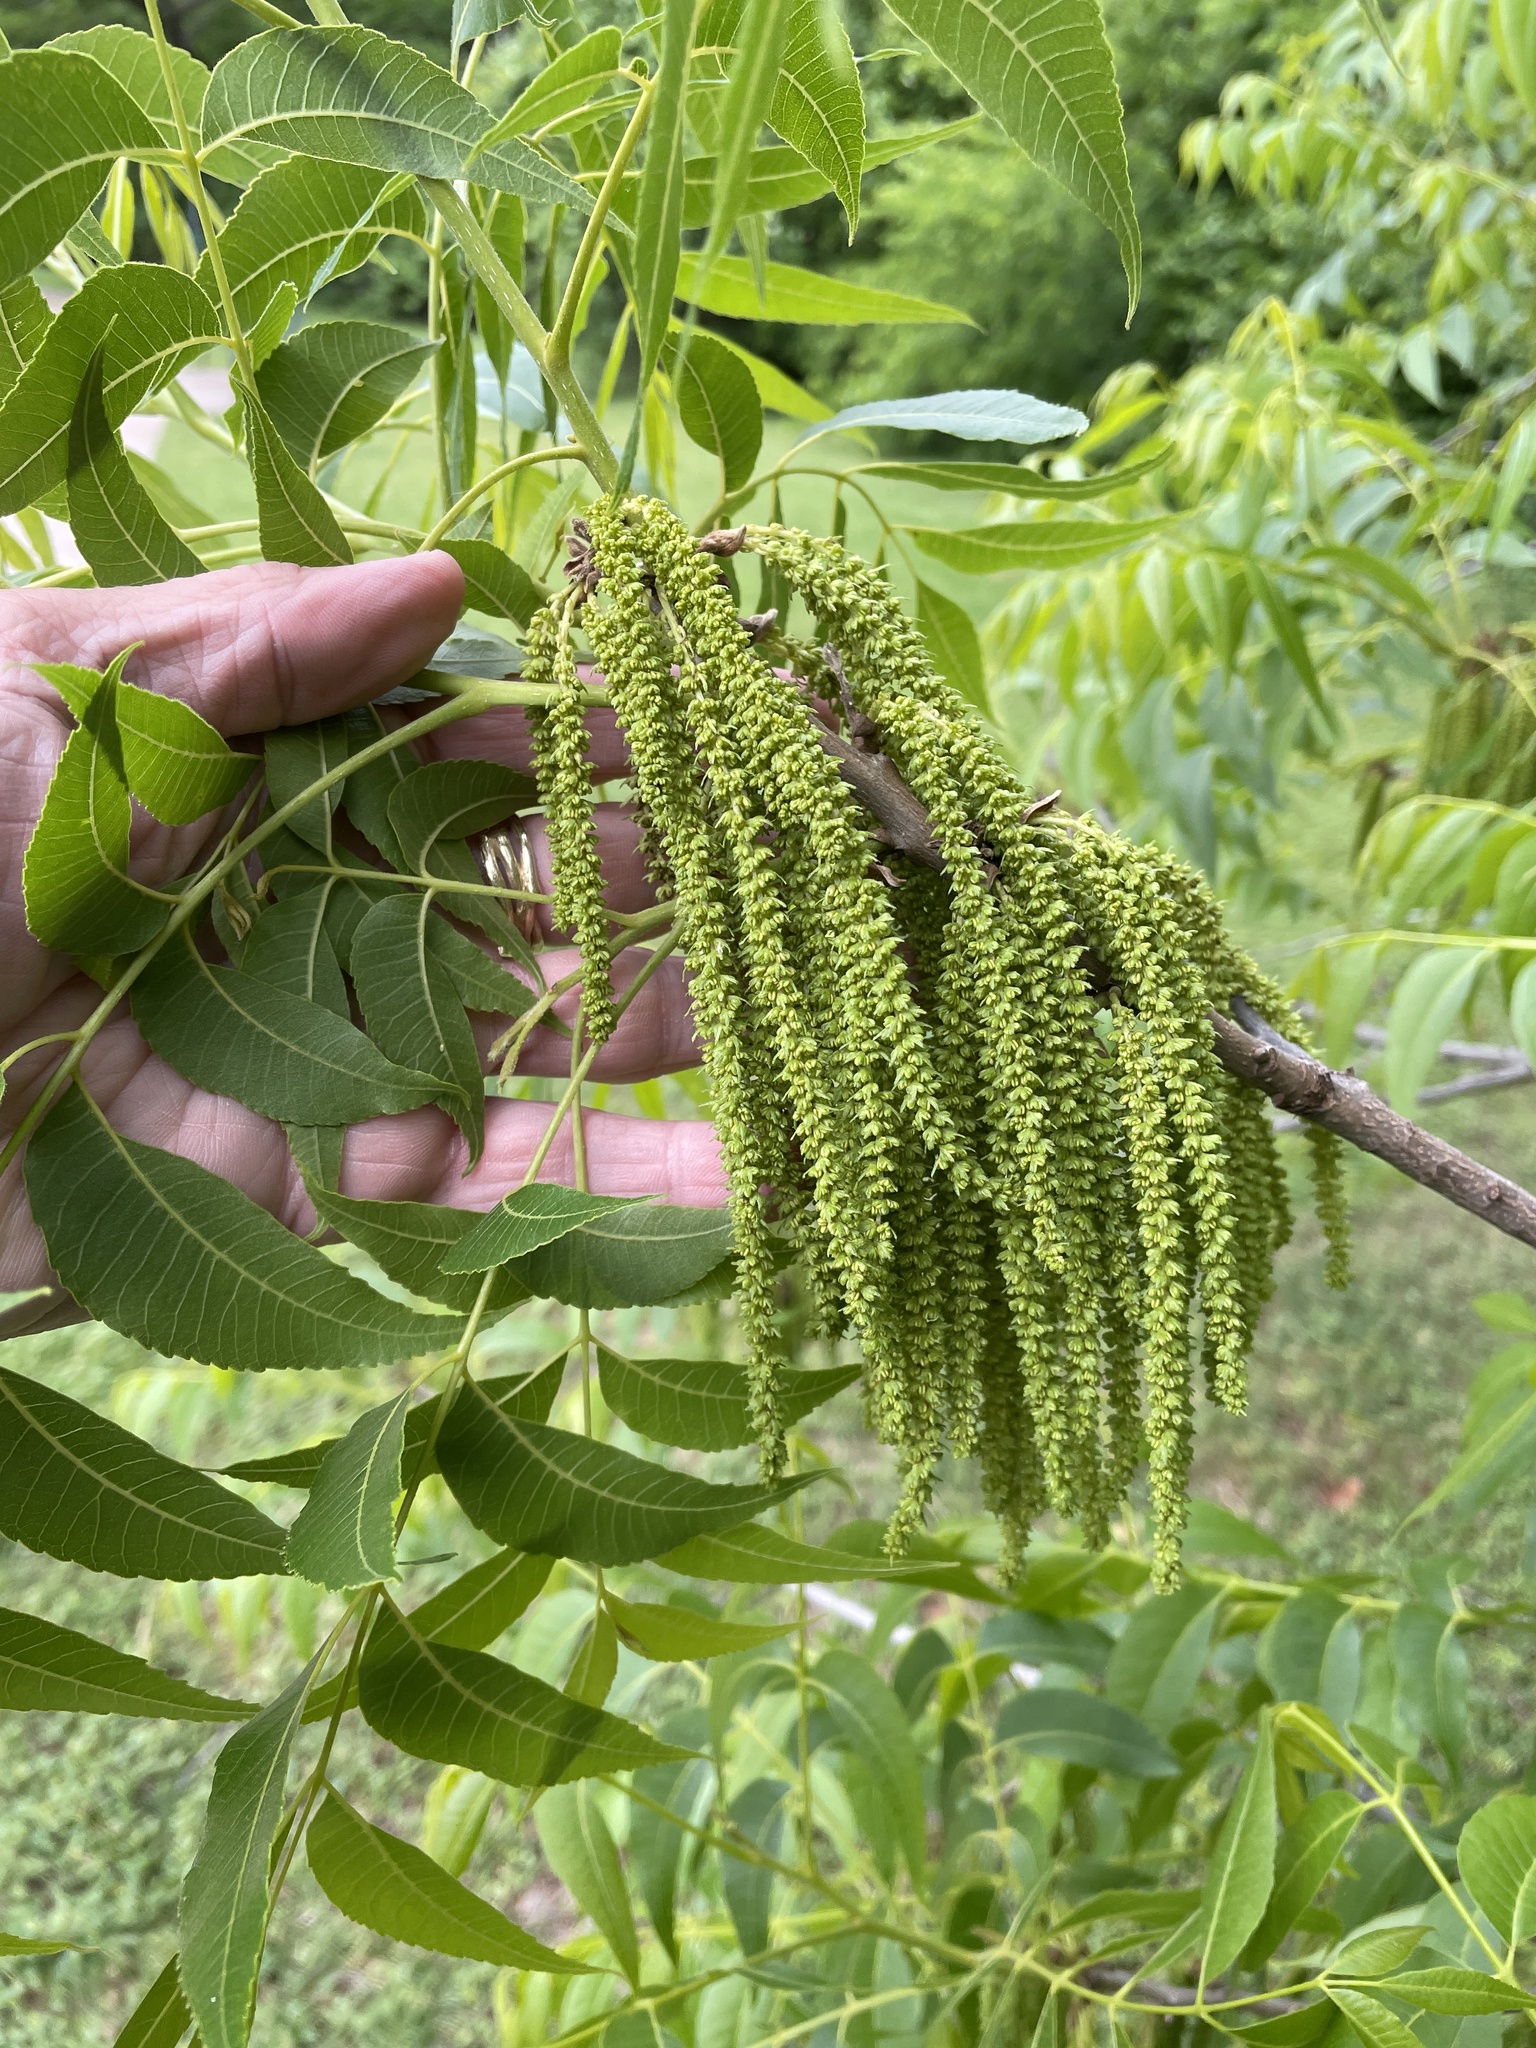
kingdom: Plantae
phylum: Tracheophyta
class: Magnoliopsida
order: Fagales
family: Juglandaceae
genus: Carya
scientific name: Carya illinoinensis
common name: Pecan
